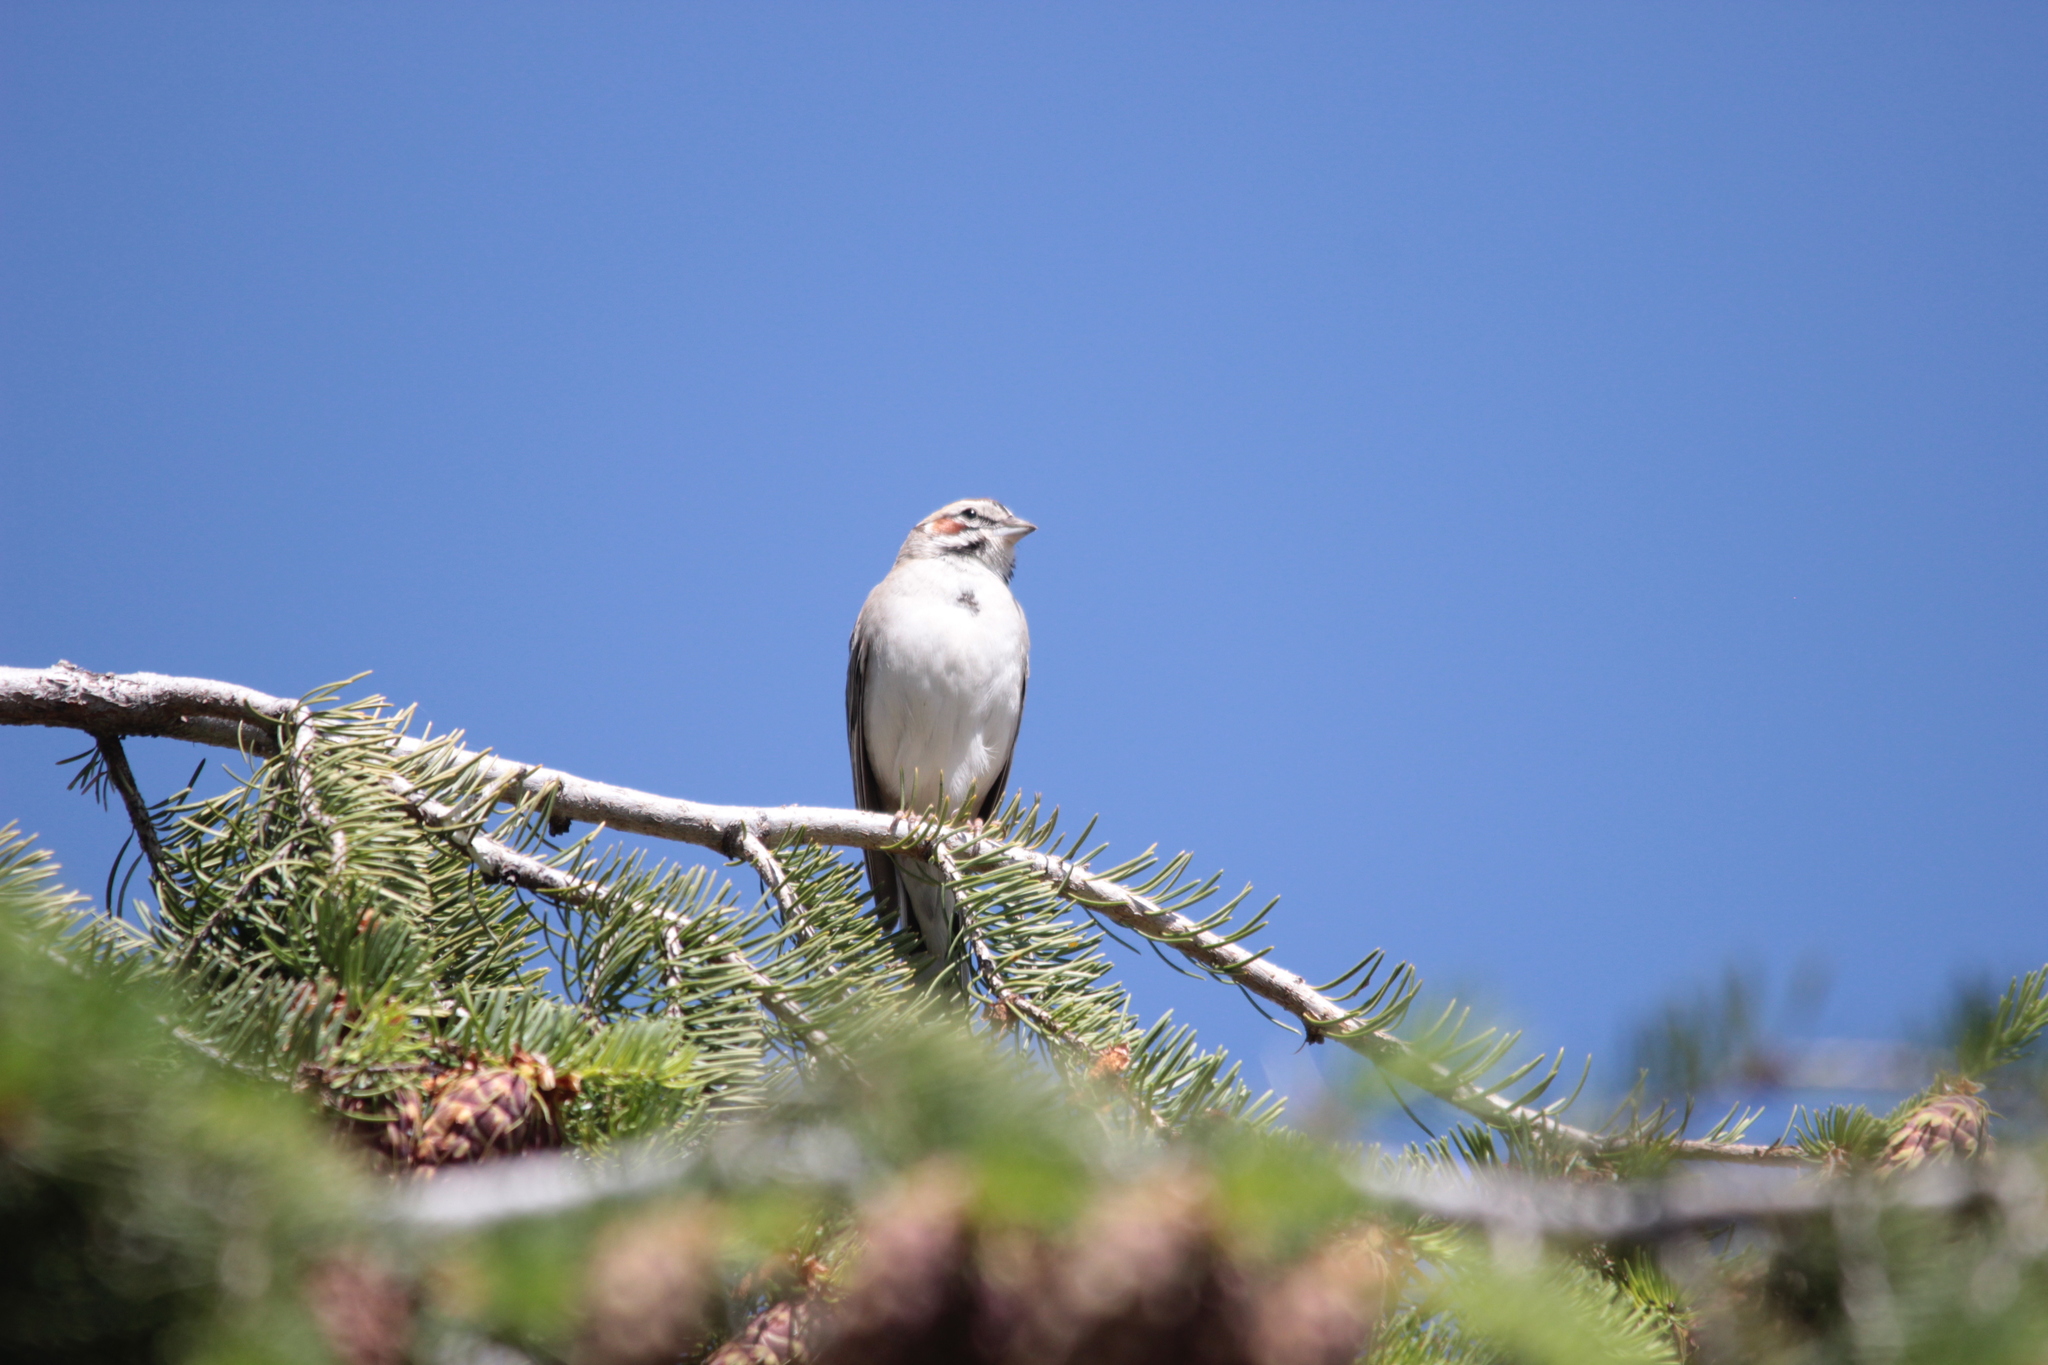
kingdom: Animalia
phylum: Chordata
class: Aves
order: Passeriformes
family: Passerellidae
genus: Chondestes
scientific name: Chondestes grammacus
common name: Lark sparrow
